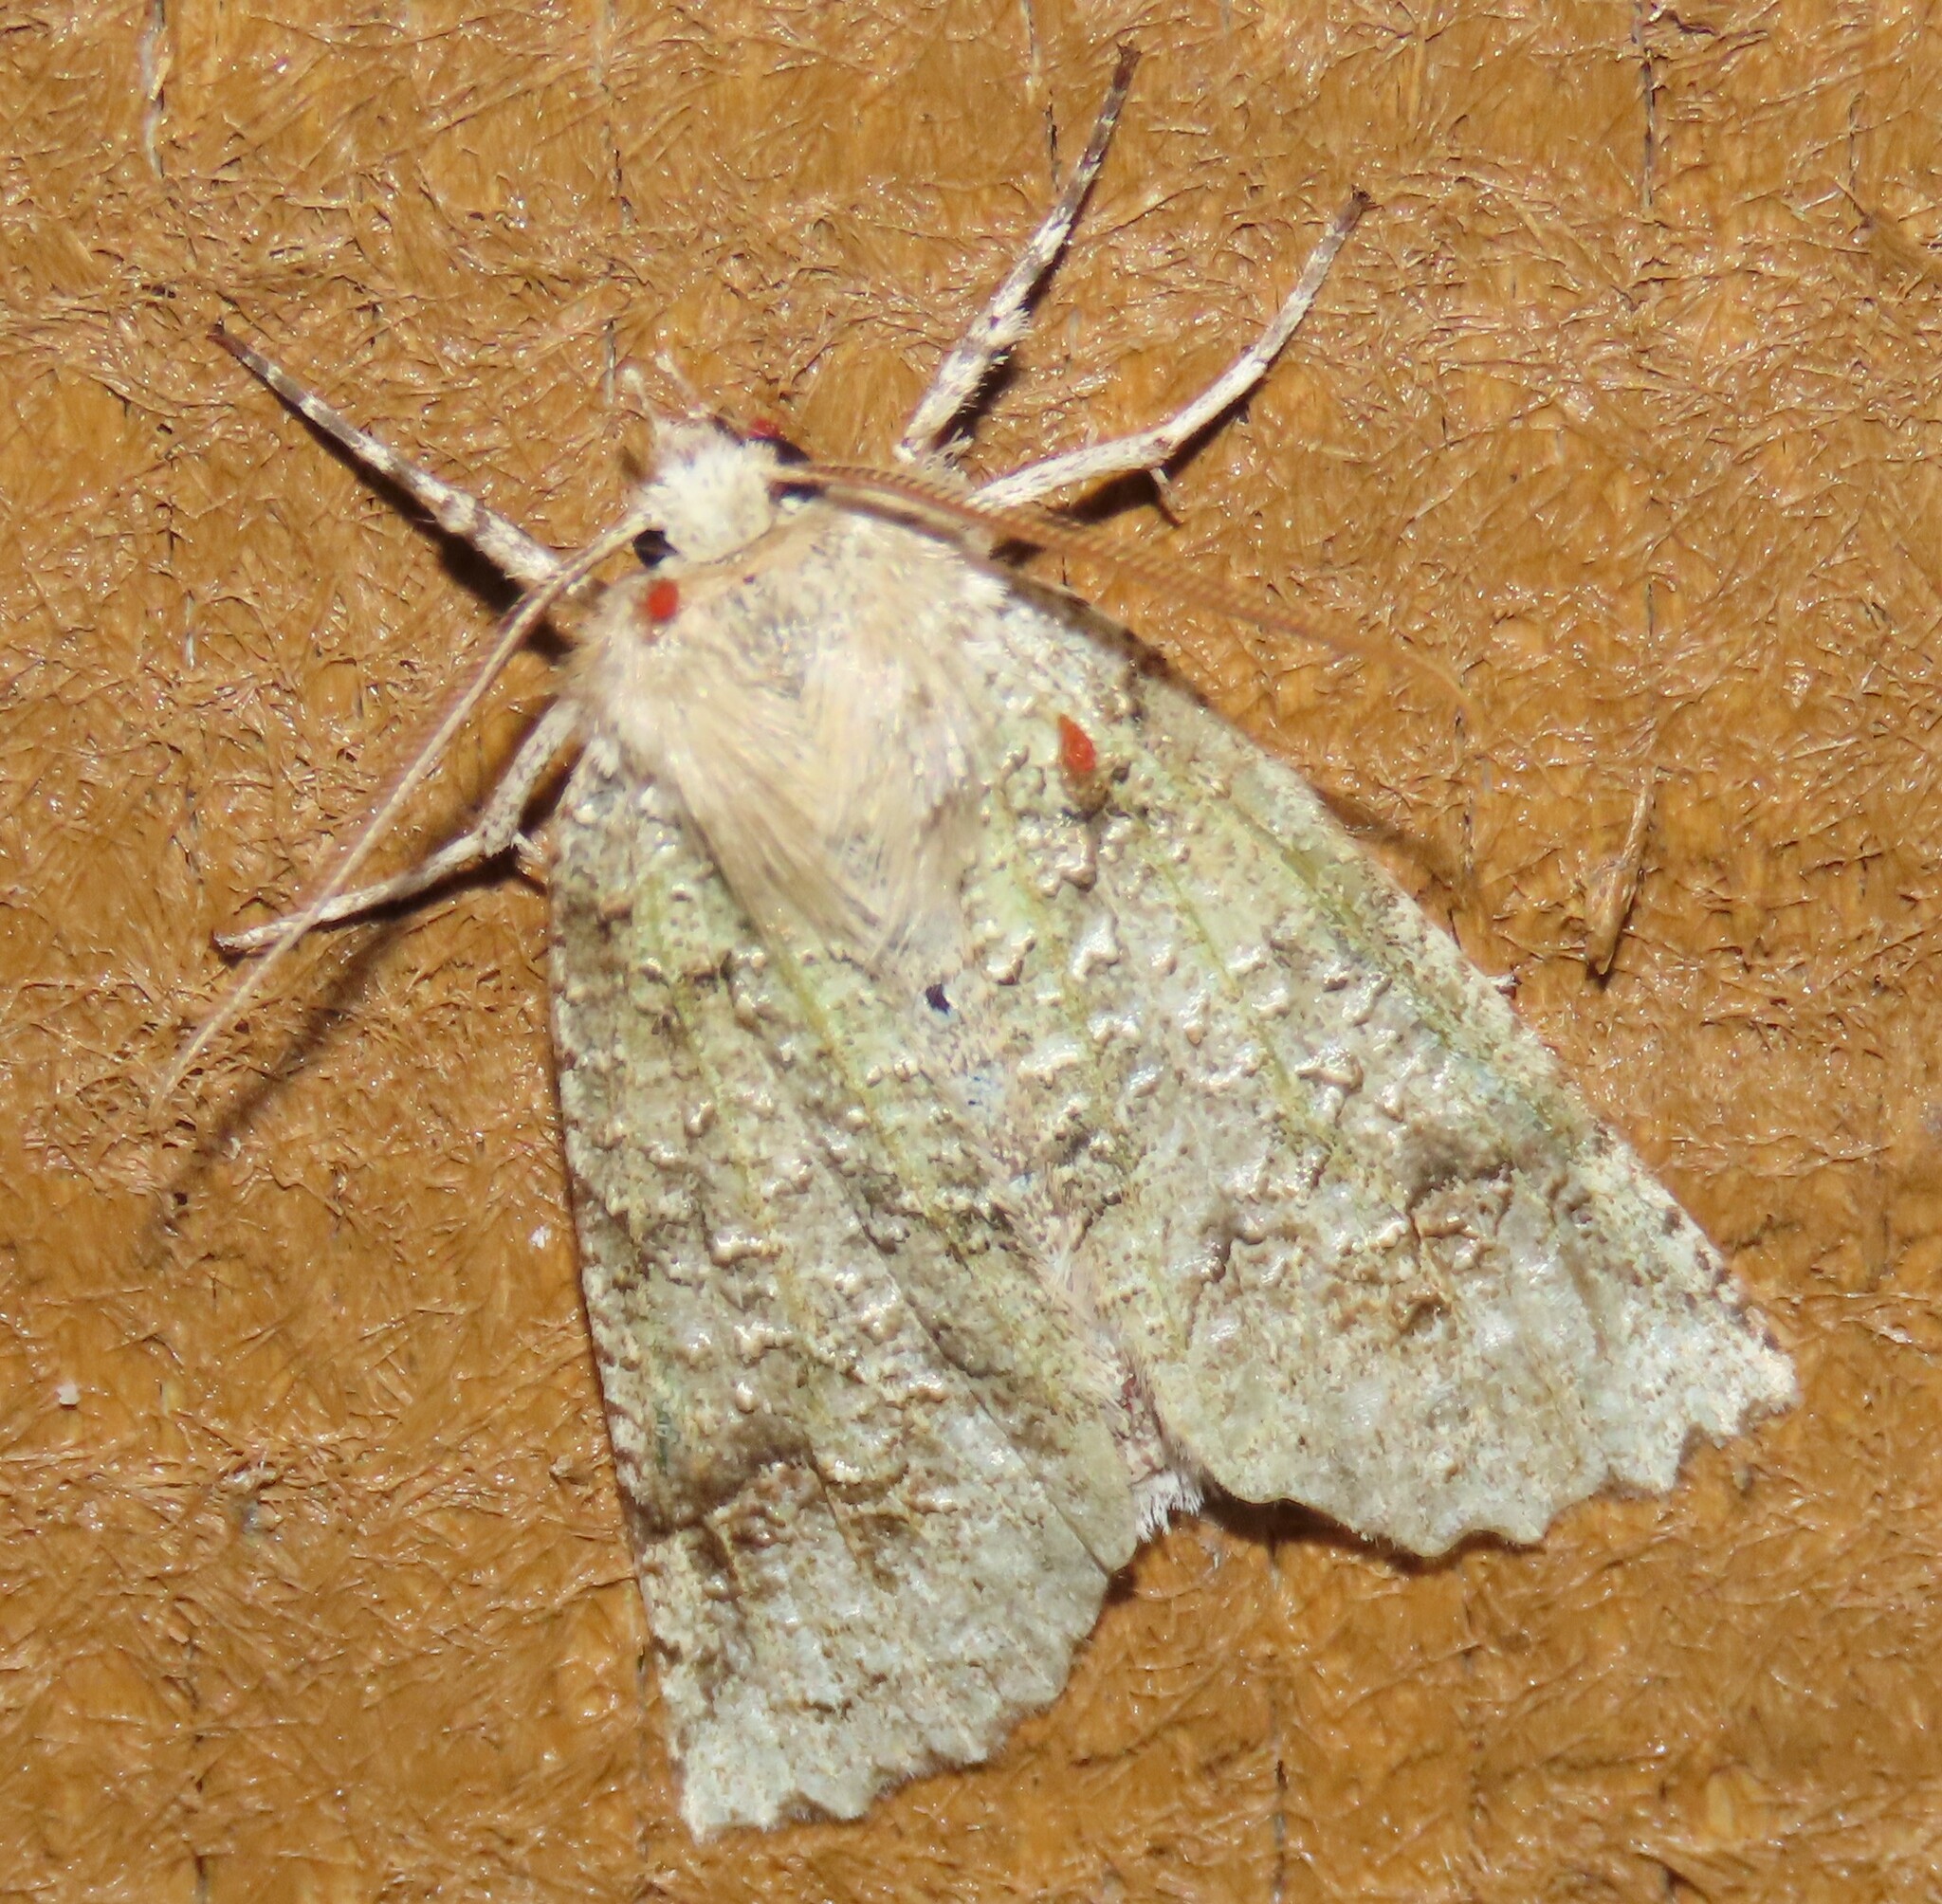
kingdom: Animalia
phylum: Arthropoda
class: Insecta
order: Lepidoptera
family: Geometridae
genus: Declana
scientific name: Declana floccosa
